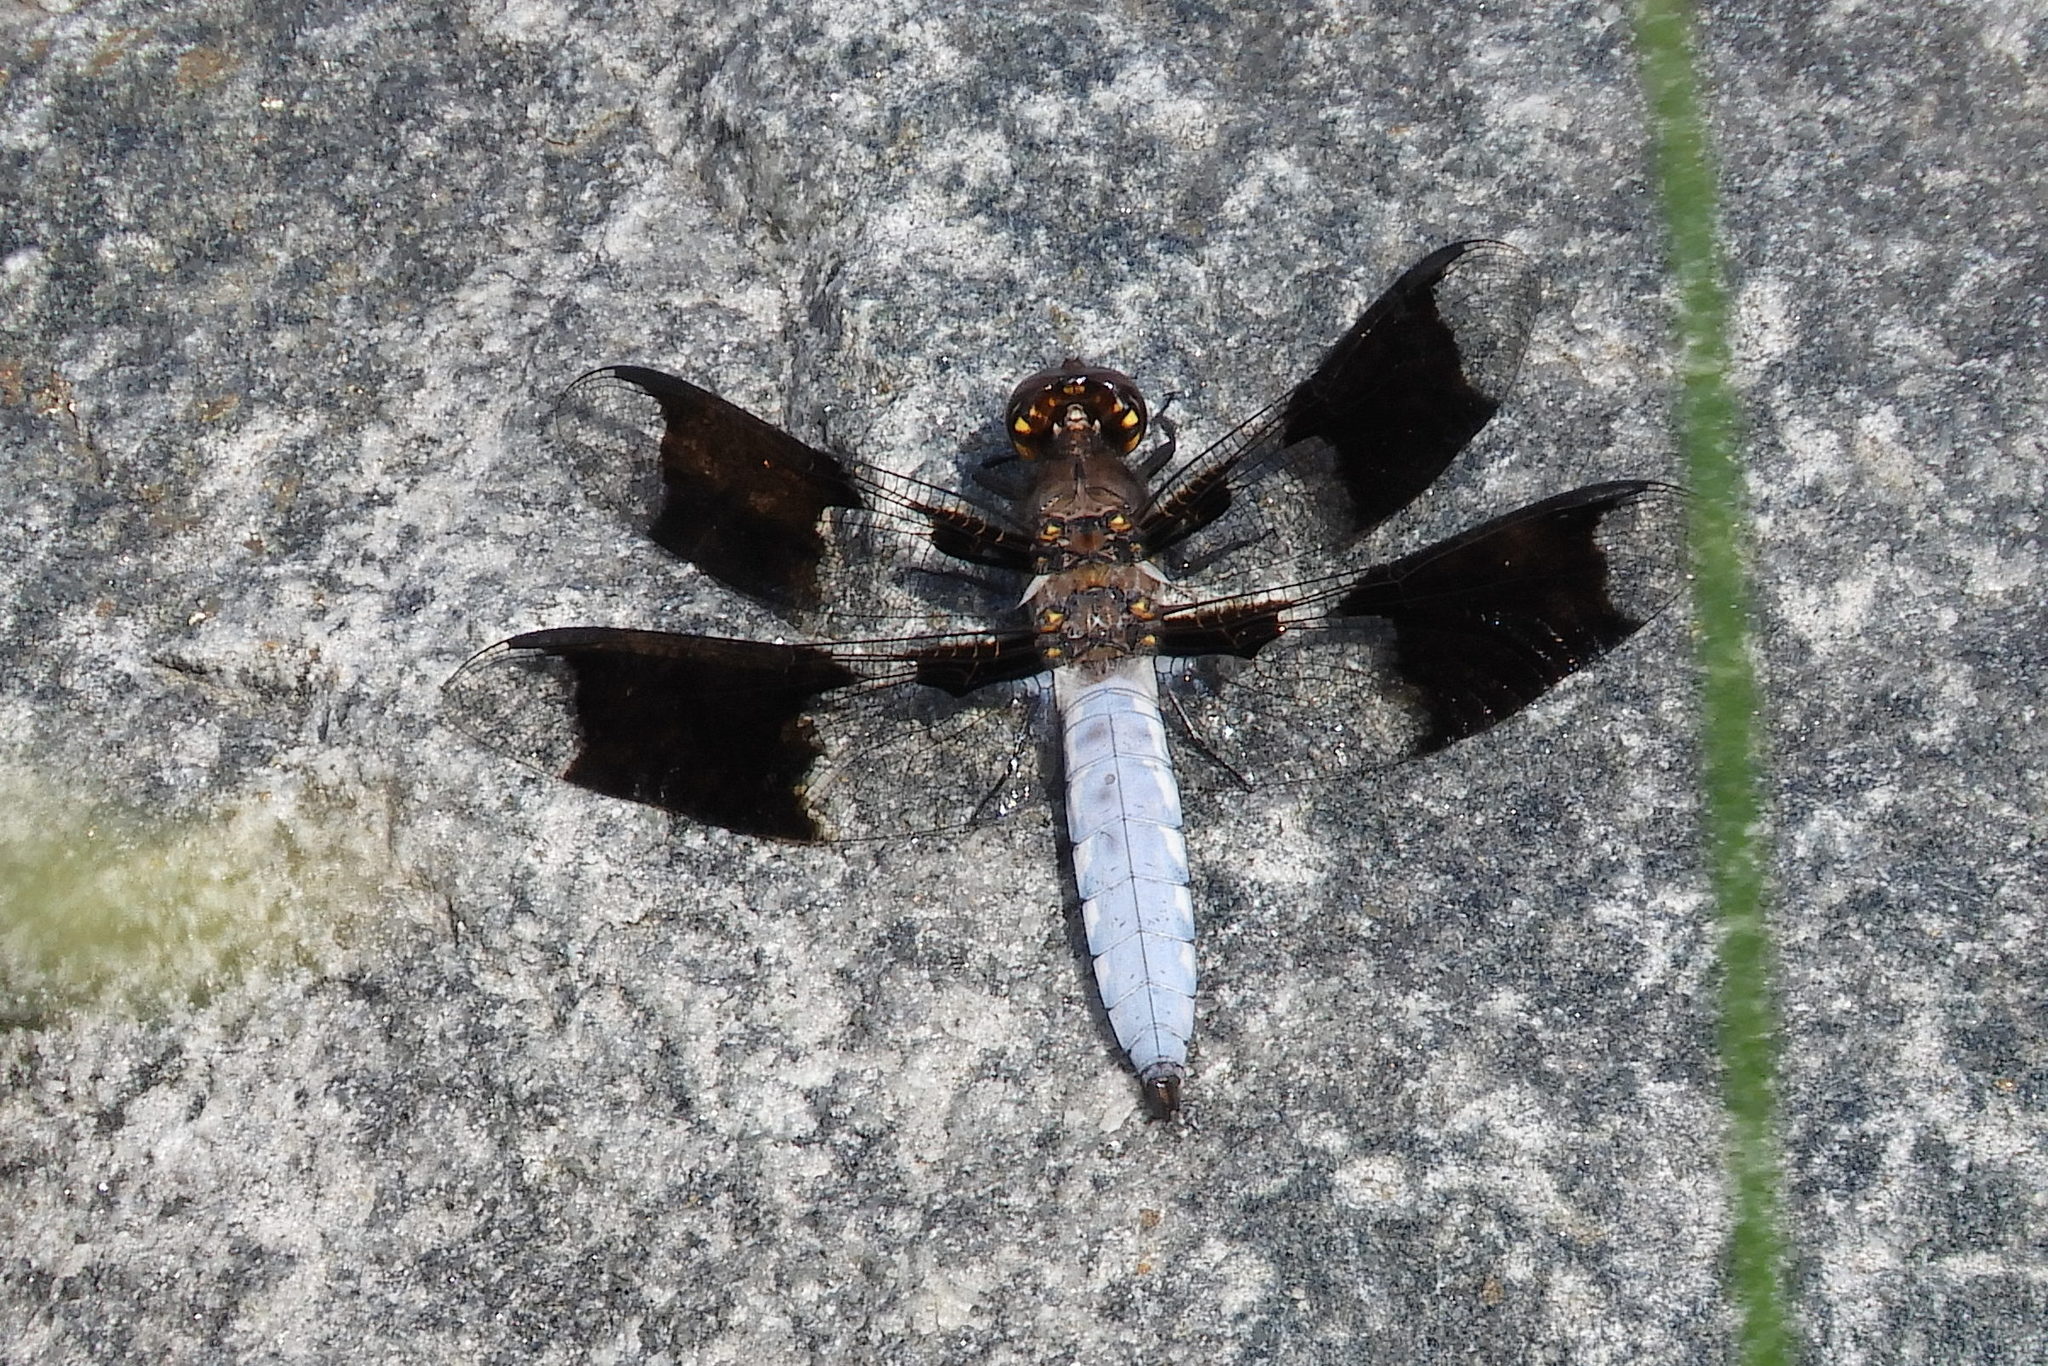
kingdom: Animalia
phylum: Arthropoda
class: Insecta
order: Odonata
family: Libellulidae
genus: Plathemis
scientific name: Plathemis lydia
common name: Common whitetail
